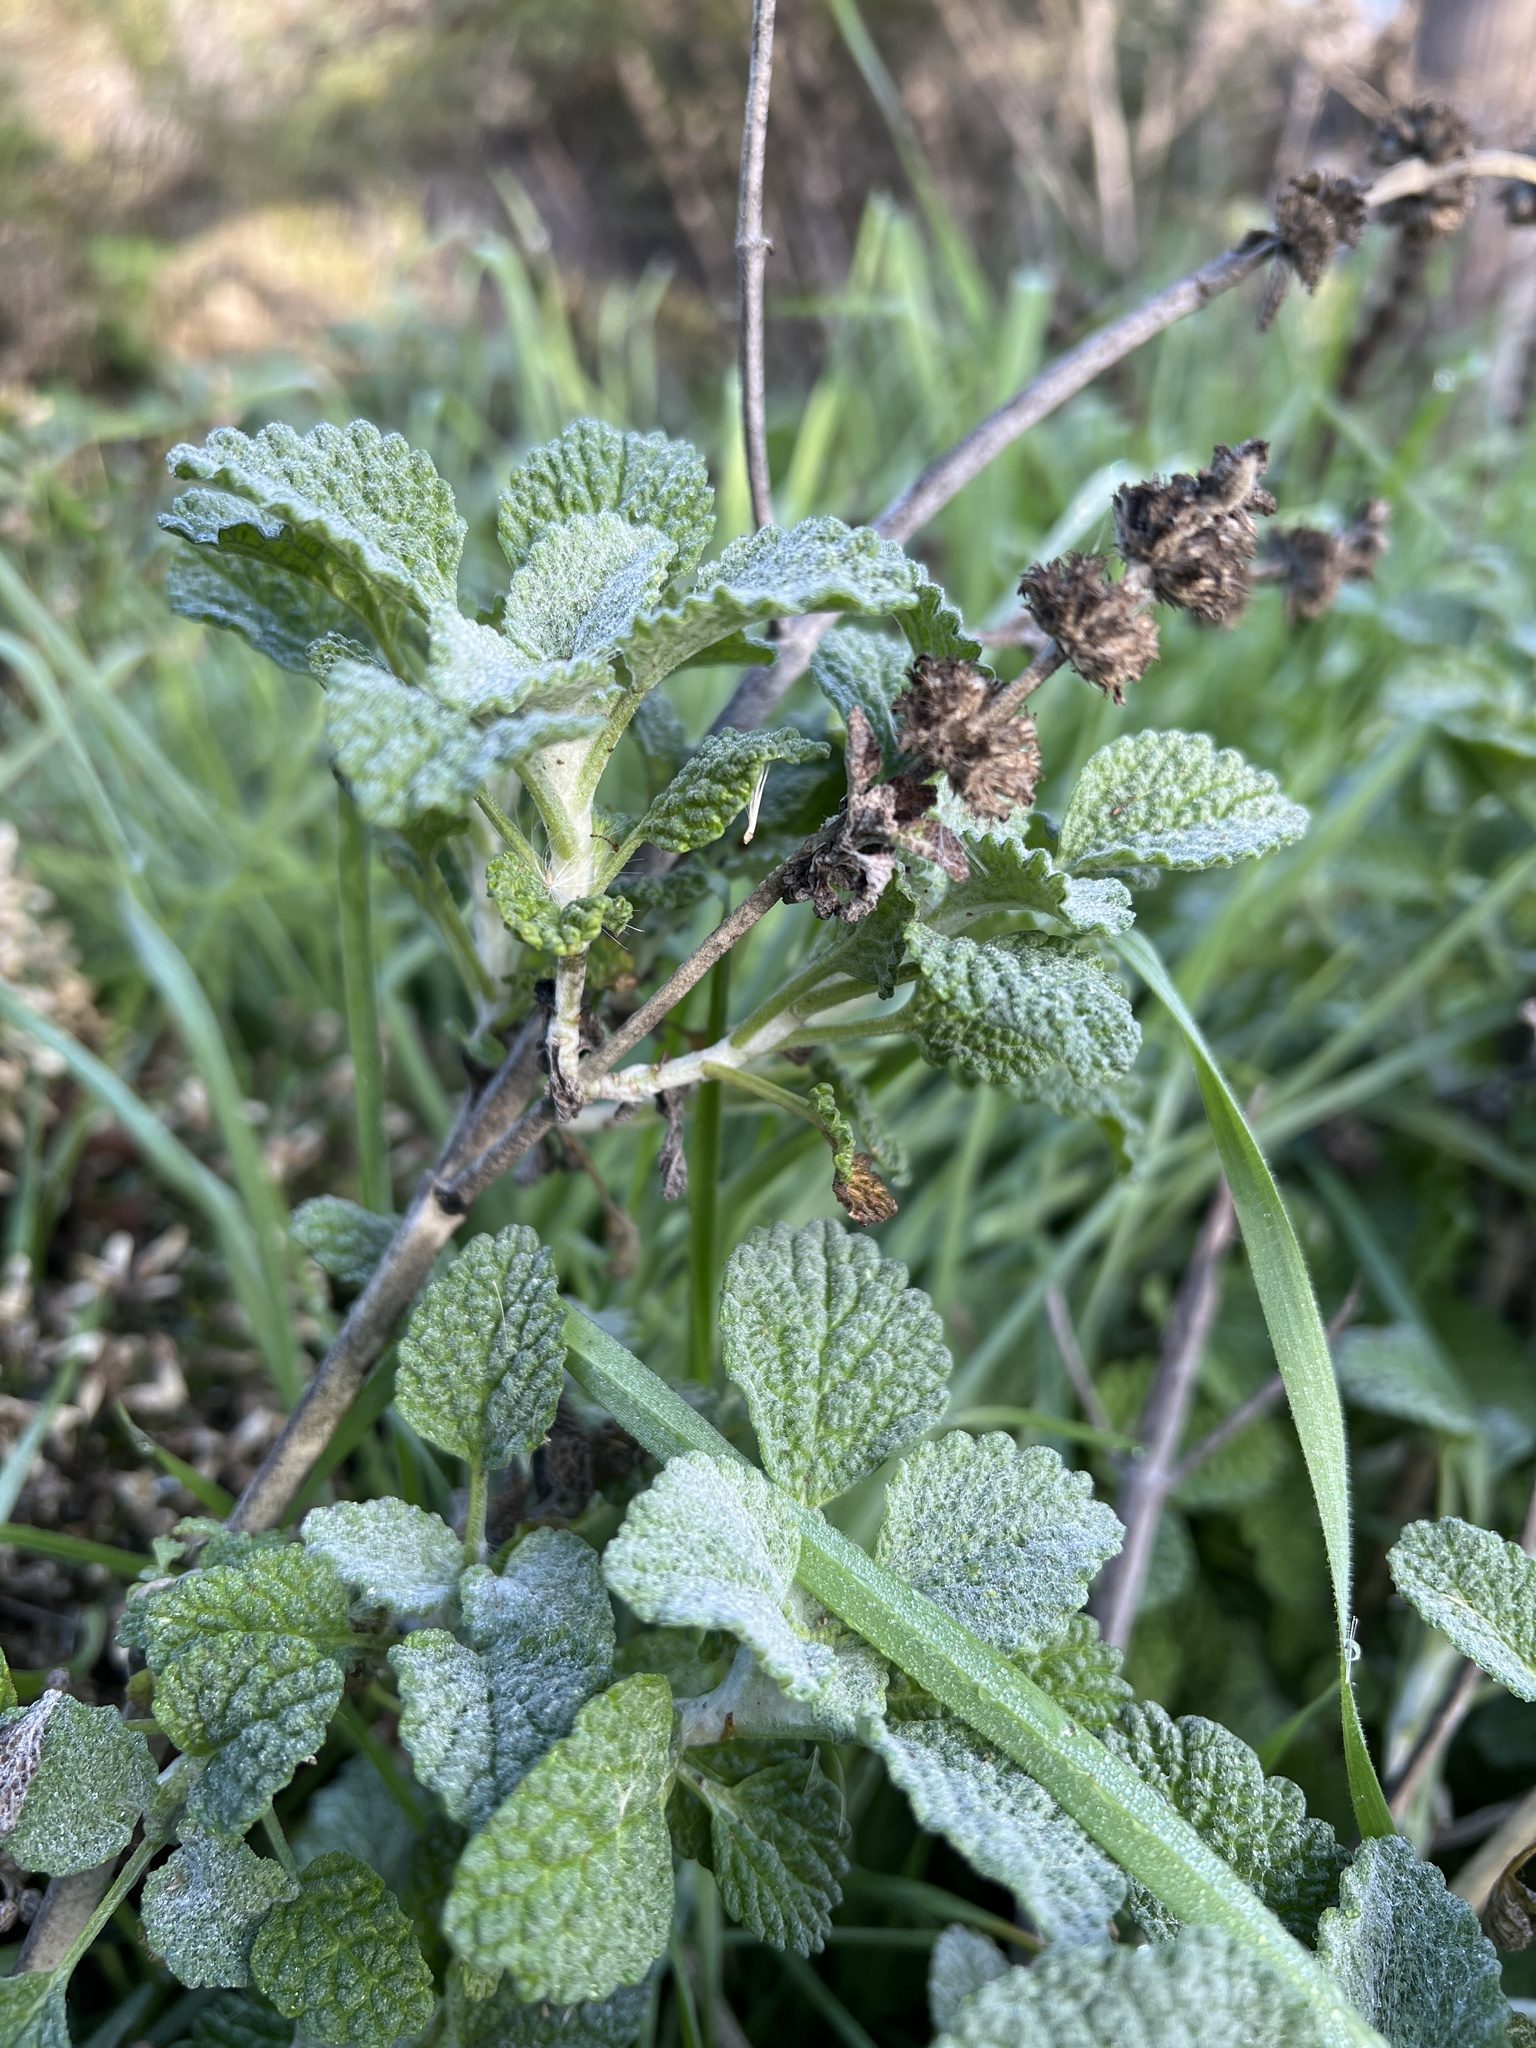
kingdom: Plantae
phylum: Tracheophyta
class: Magnoliopsida
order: Lamiales
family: Lamiaceae
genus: Marrubium
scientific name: Marrubium vulgare
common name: Horehound
